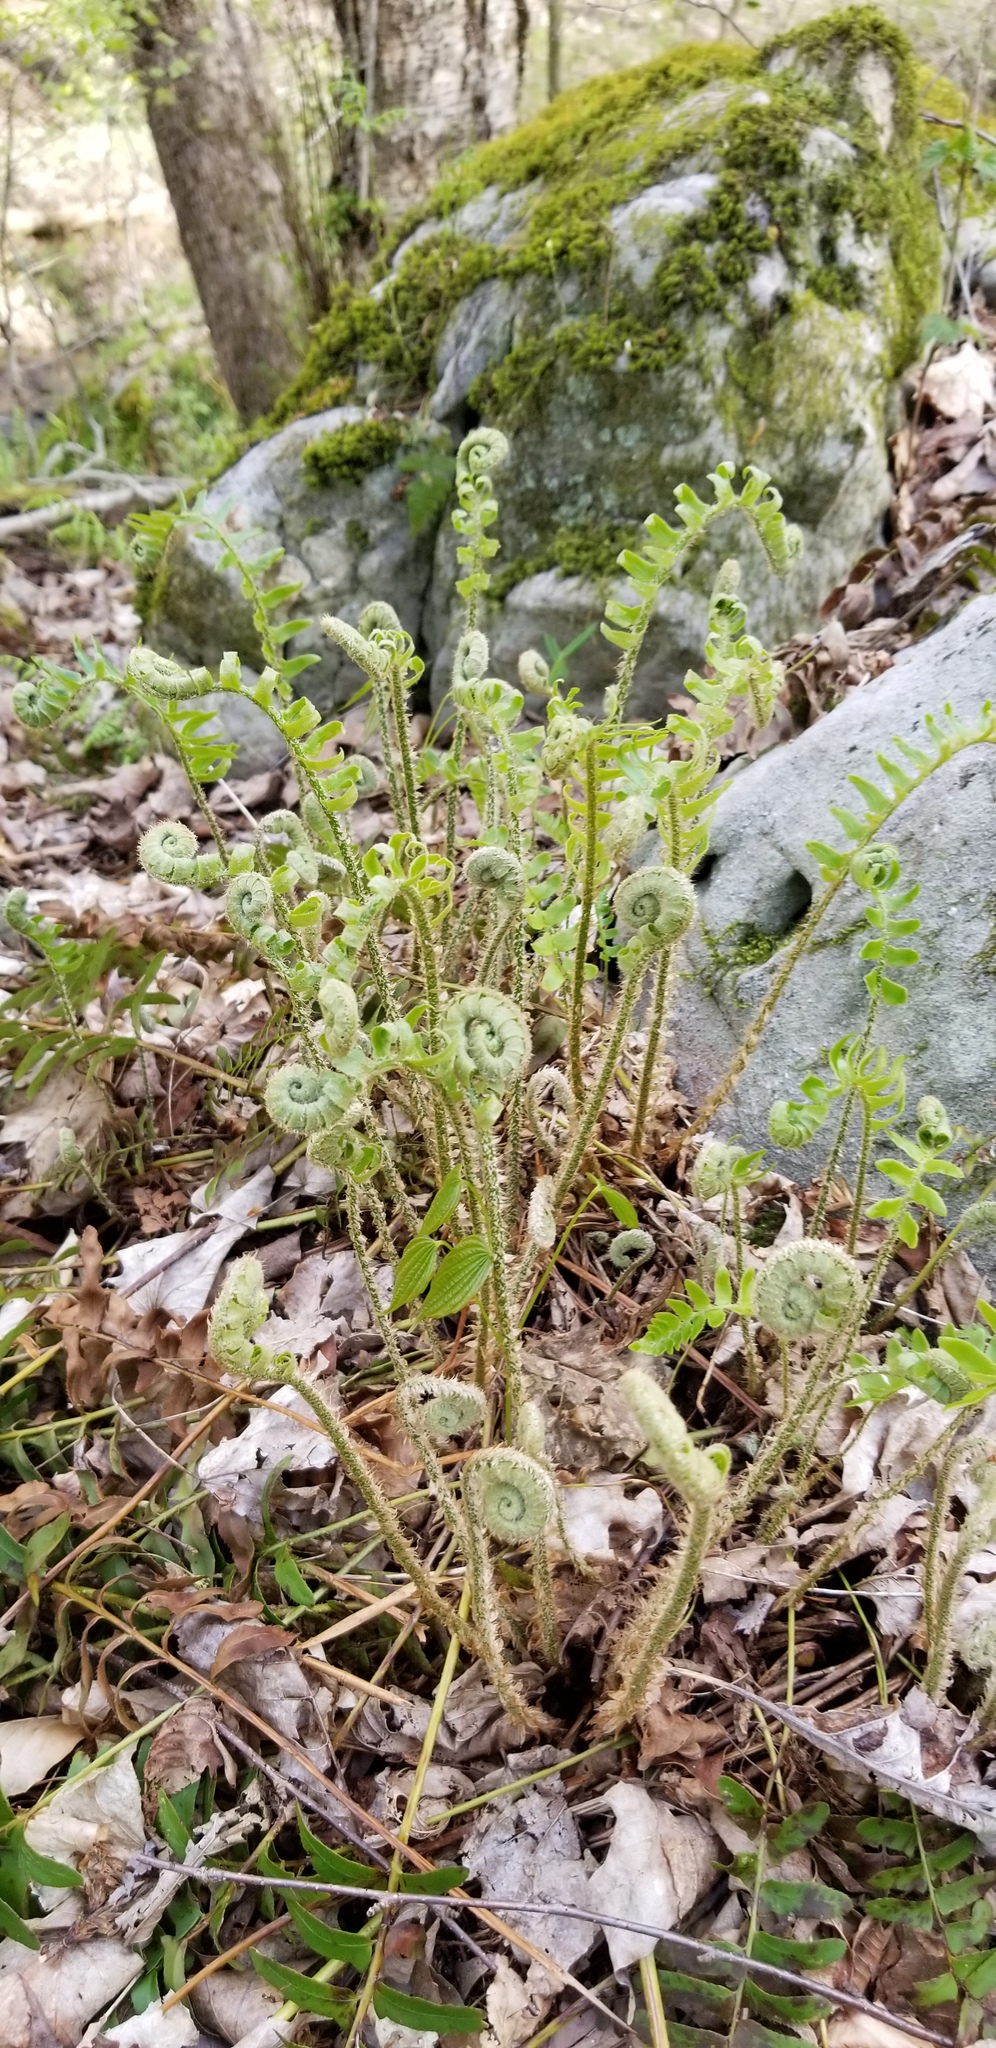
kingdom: Plantae
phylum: Tracheophyta
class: Polypodiopsida
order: Polypodiales
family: Dryopteridaceae
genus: Polystichum
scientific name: Polystichum acrostichoides
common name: Christmas fern
